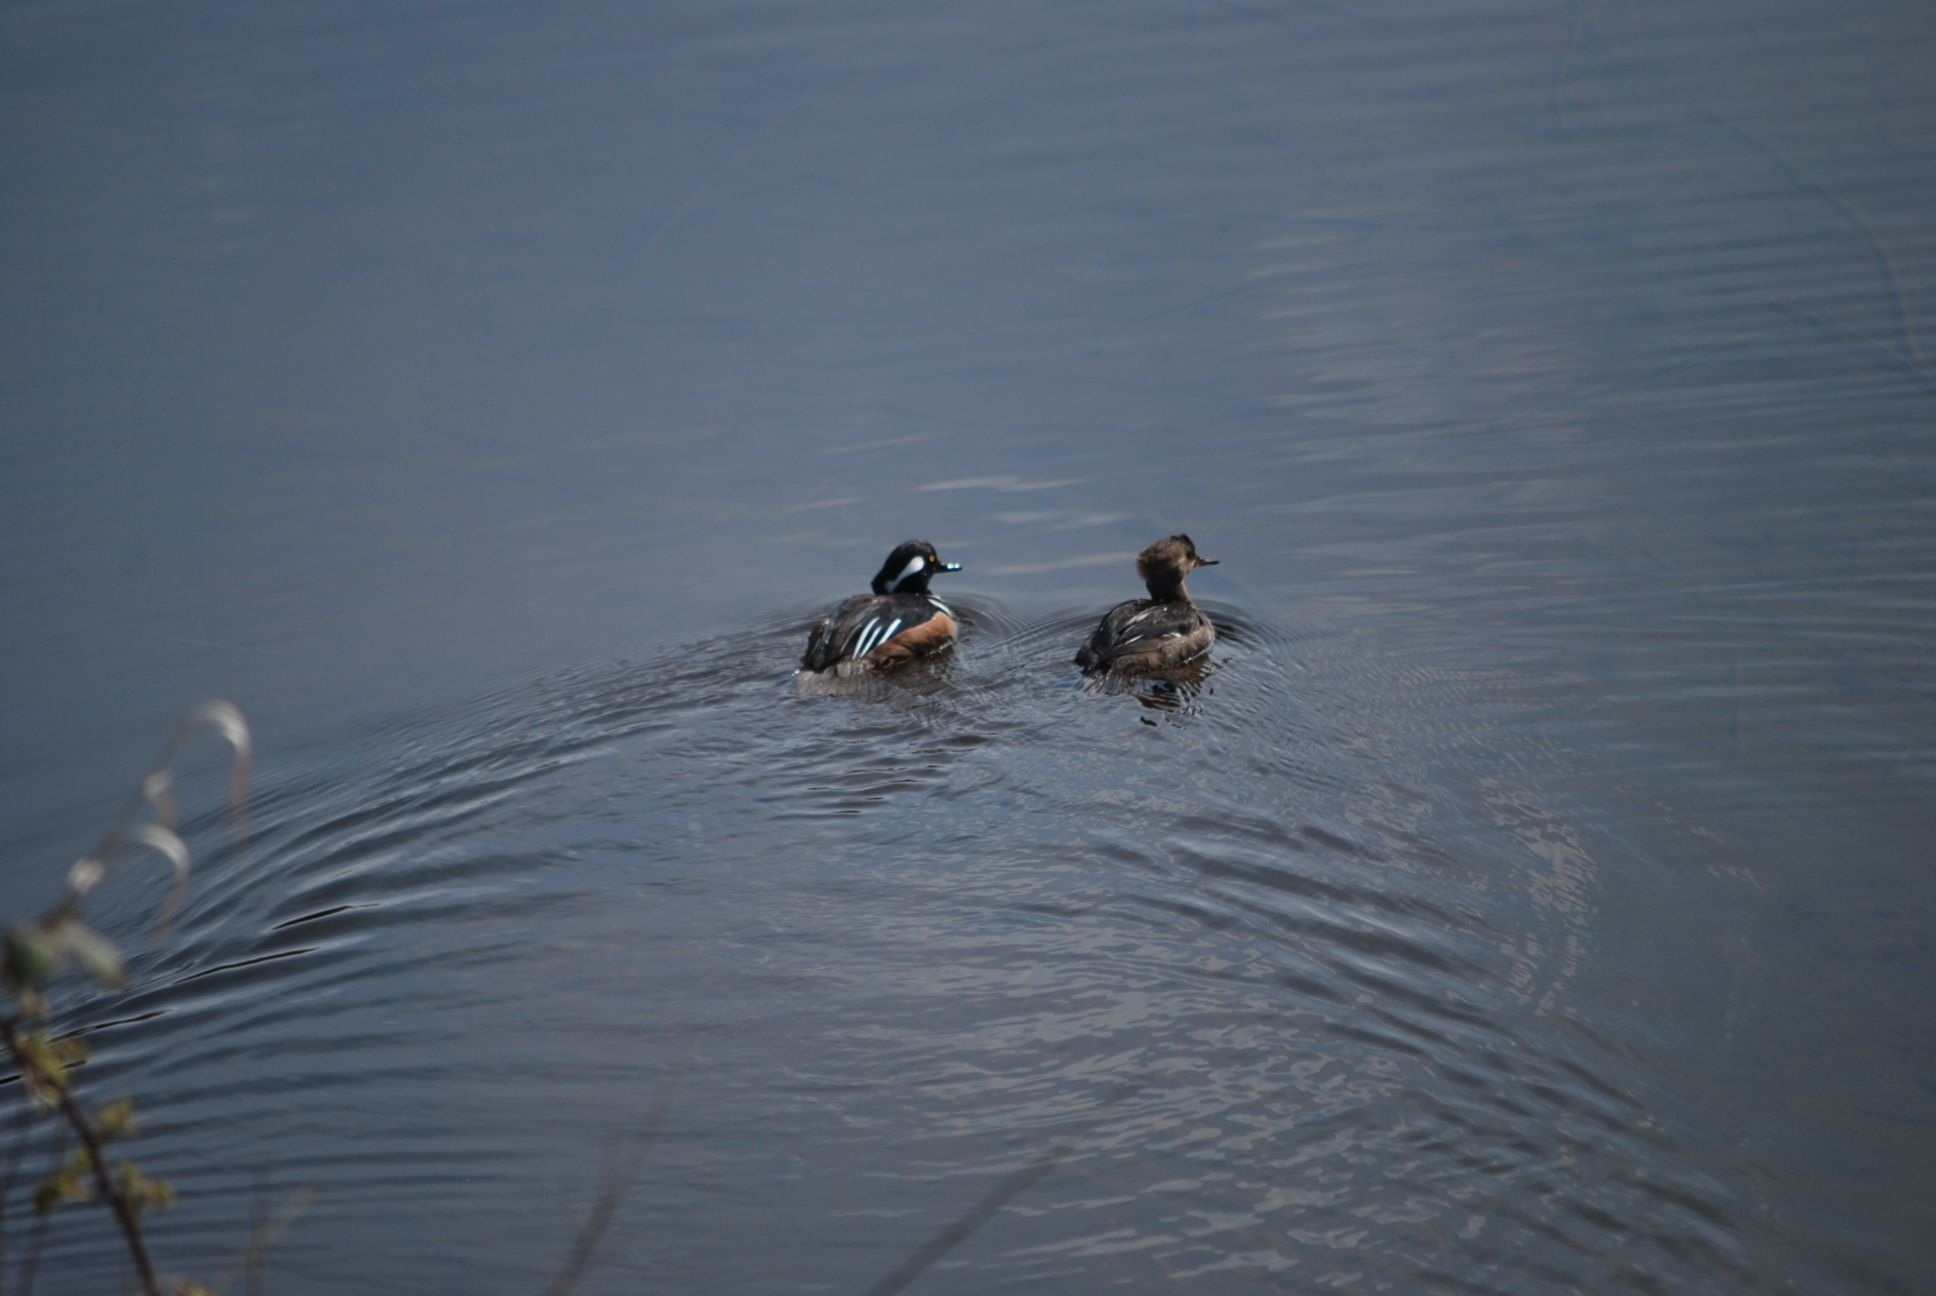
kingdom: Animalia
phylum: Chordata
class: Aves
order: Anseriformes
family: Anatidae
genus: Lophodytes
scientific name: Lophodytes cucullatus
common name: Hooded merganser
